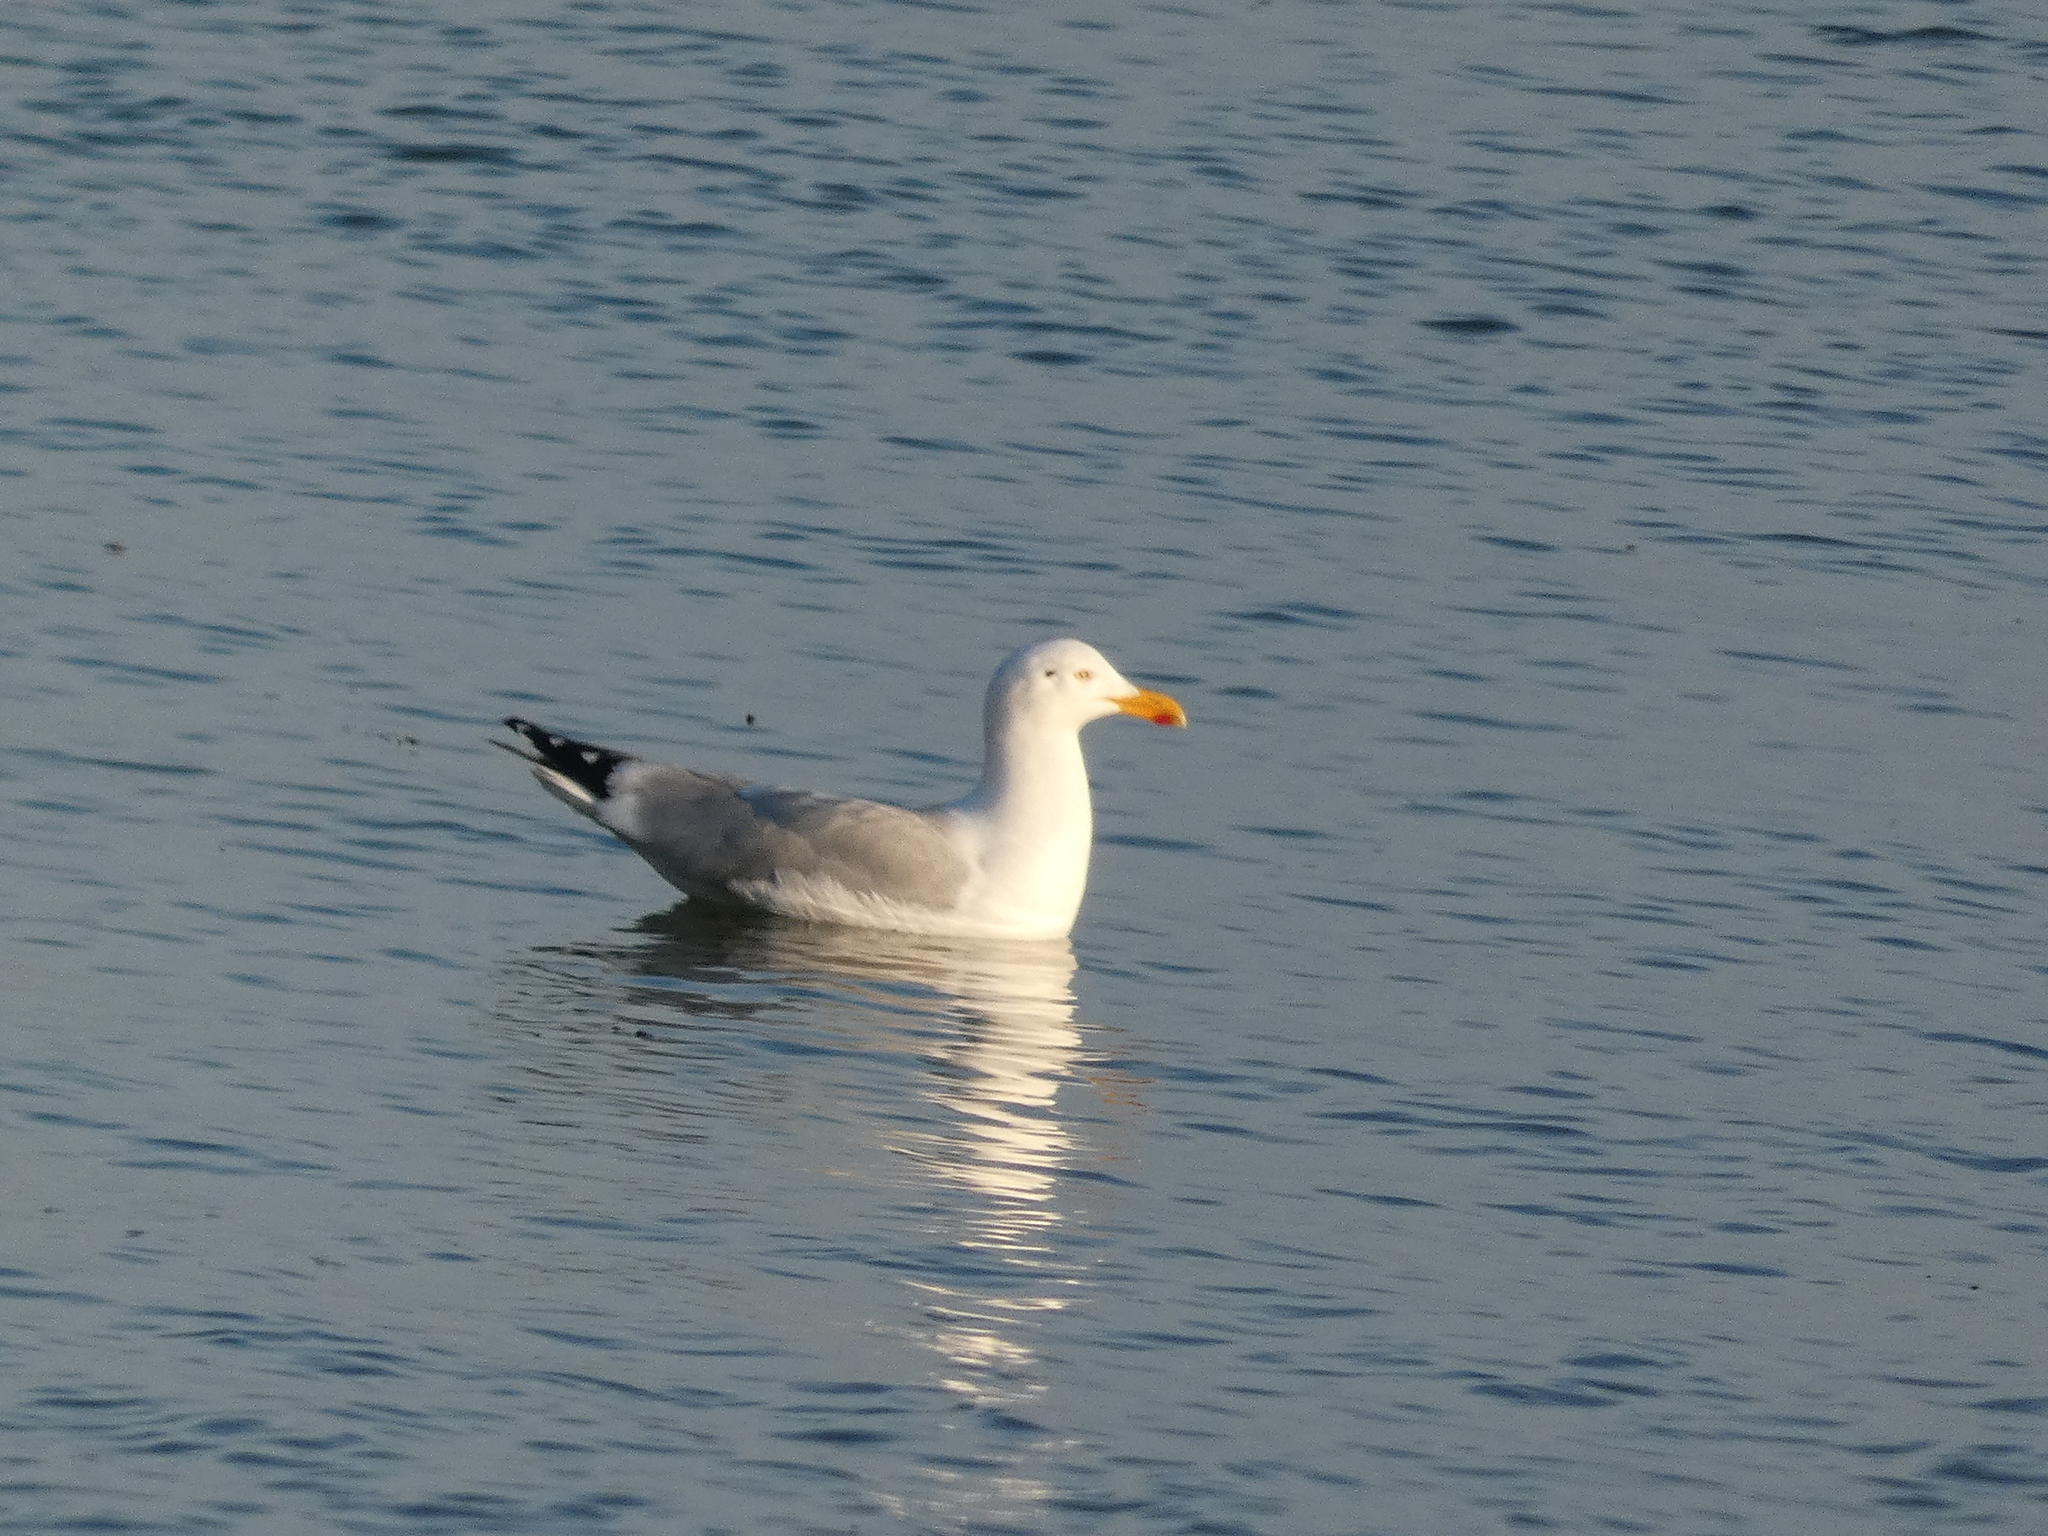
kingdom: Animalia
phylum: Chordata
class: Aves
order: Charadriiformes
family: Laridae
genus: Larus
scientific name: Larus argentatus
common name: Herring gull
